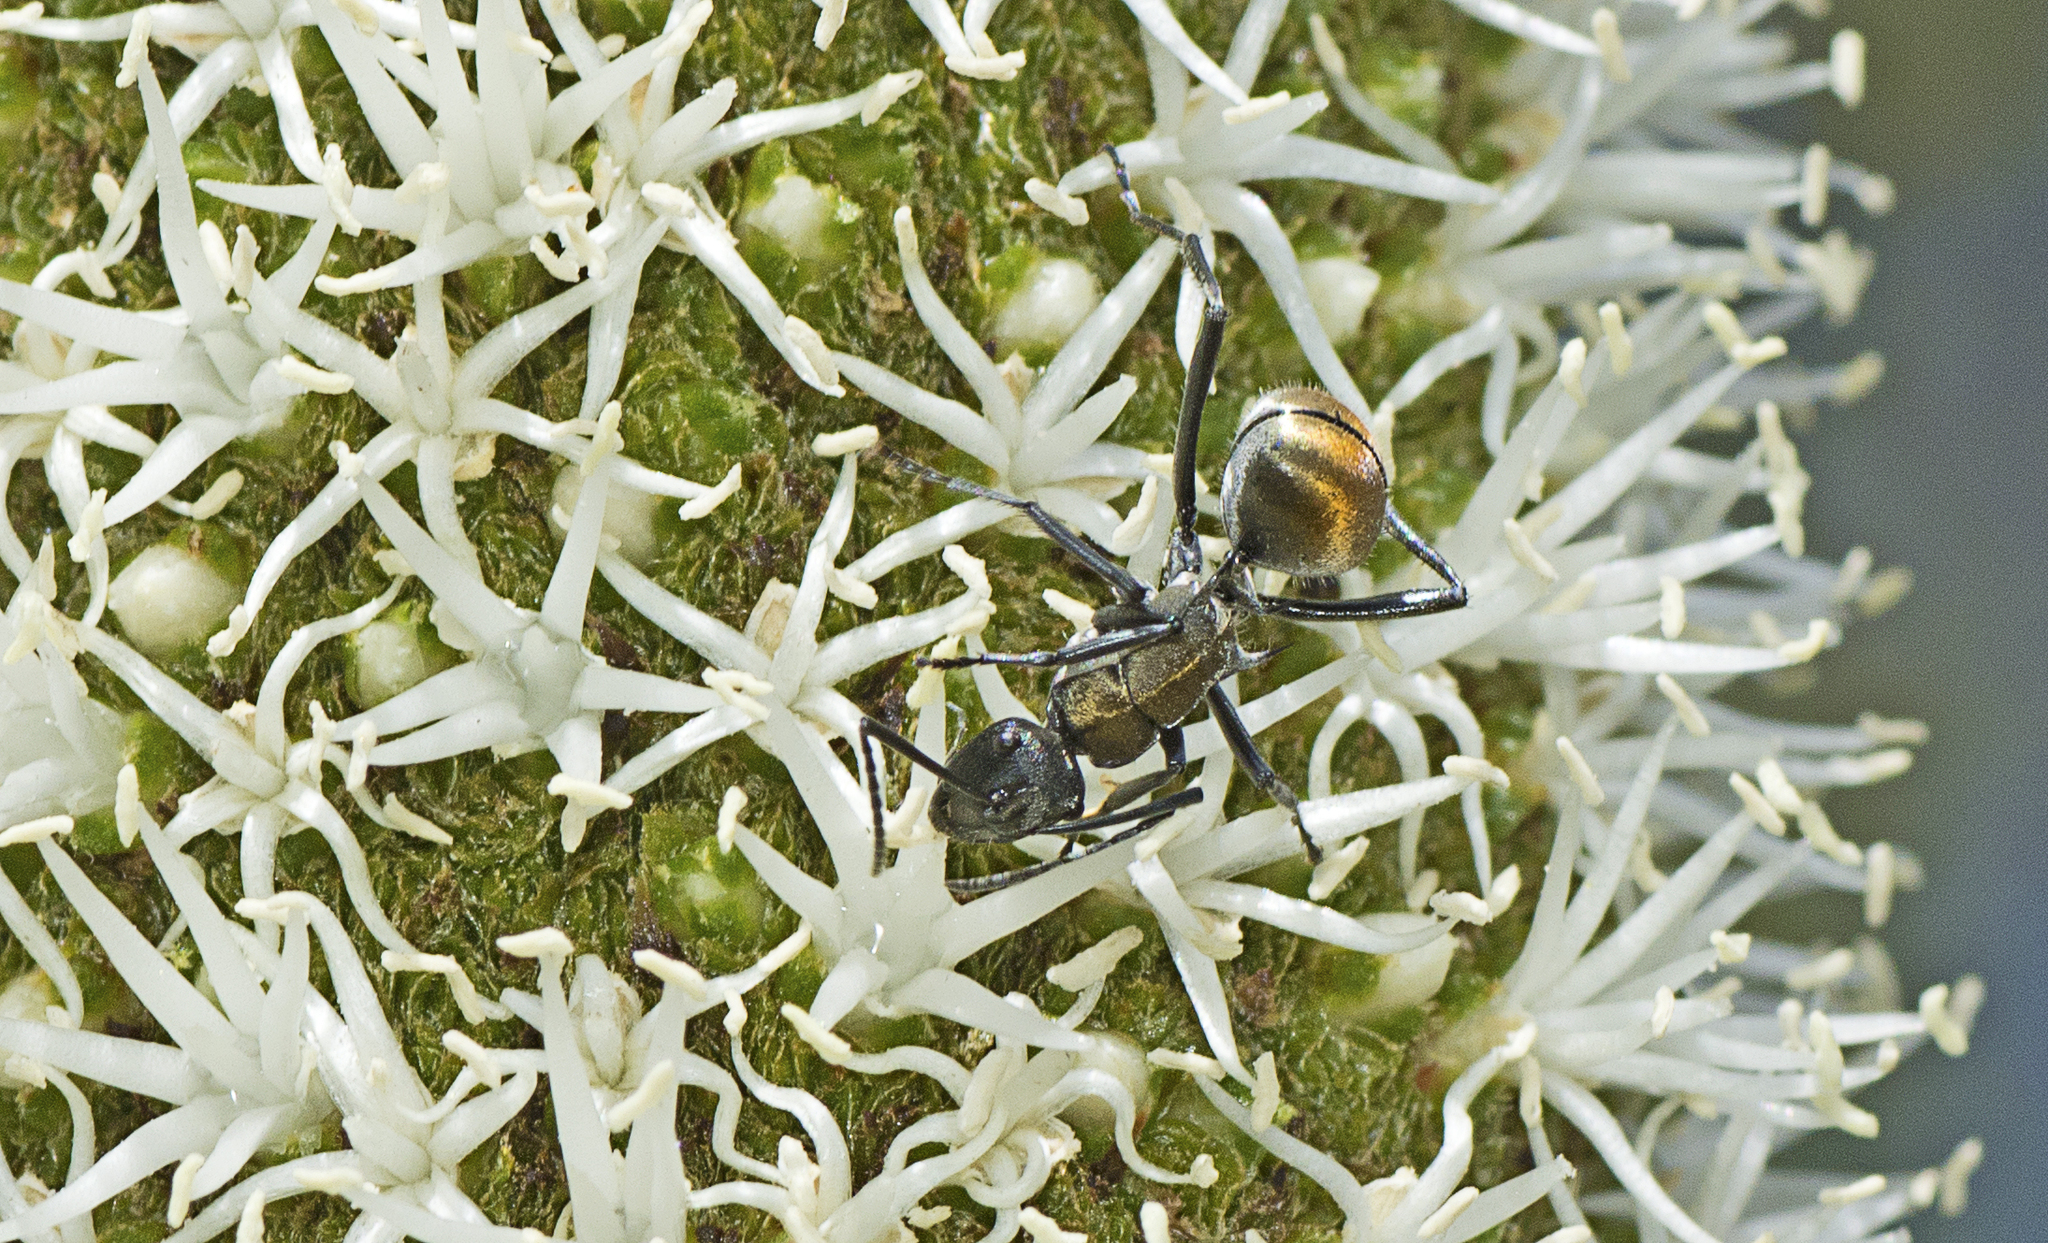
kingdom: Animalia
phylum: Arthropoda
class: Insecta
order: Hymenoptera
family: Formicidae
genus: Polyrhachis
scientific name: Polyrhachis ammon
